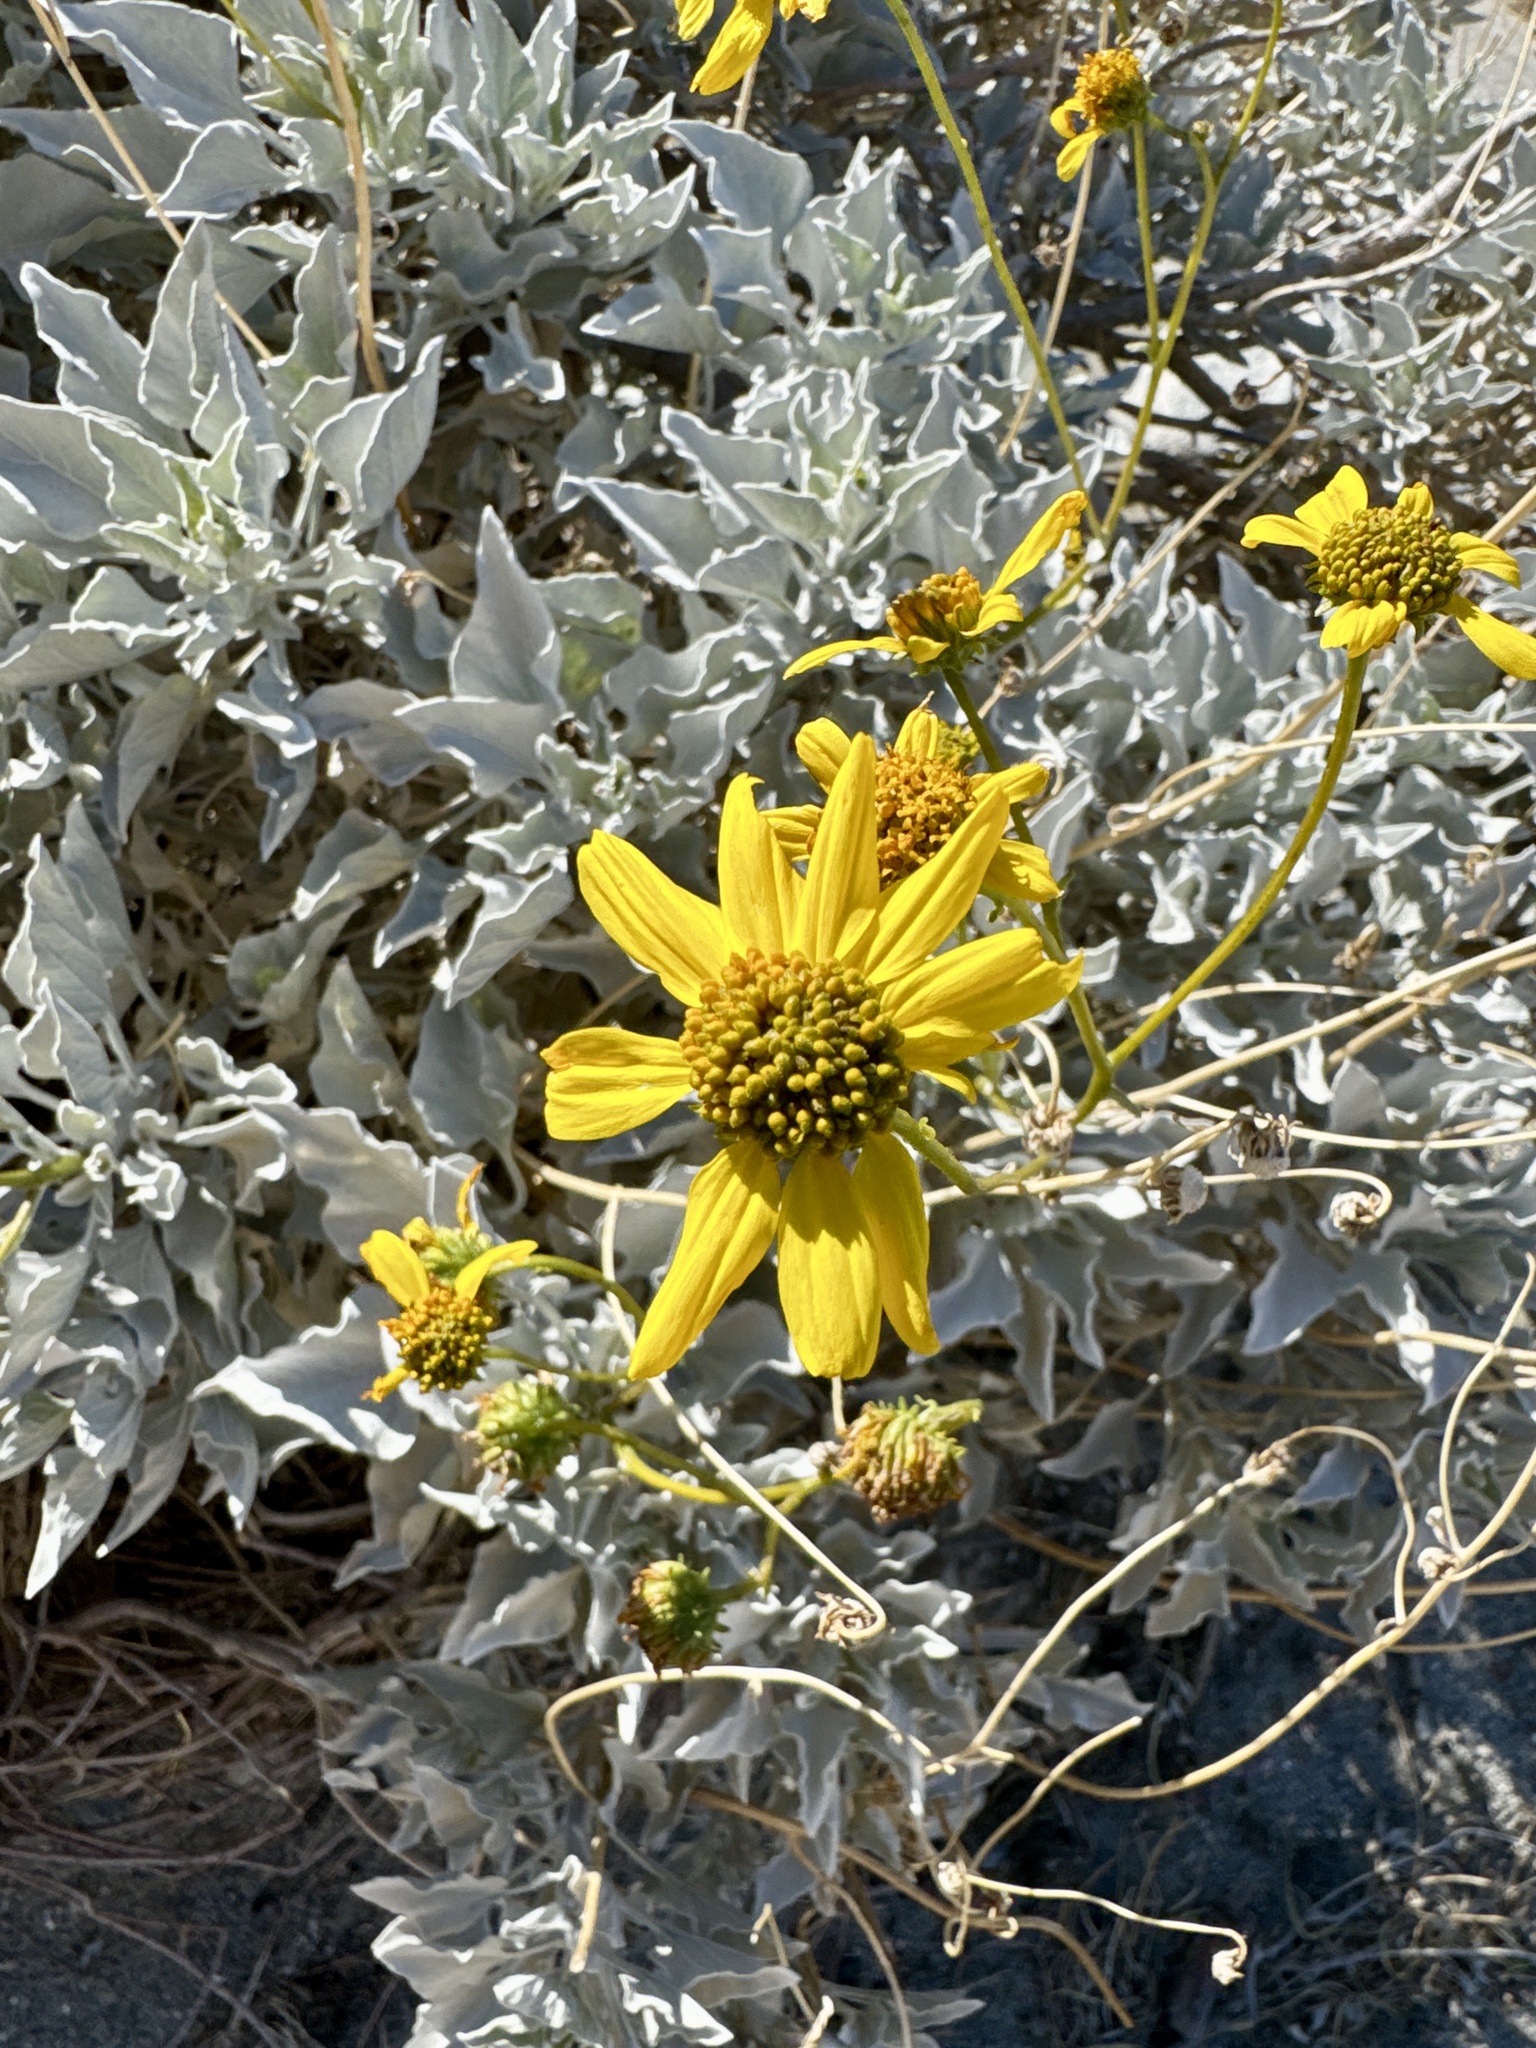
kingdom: Plantae
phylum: Tracheophyta
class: Magnoliopsida
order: Asterales
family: Asteraceae
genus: Encelia
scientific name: Encelia farinosa
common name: Brittlebush
